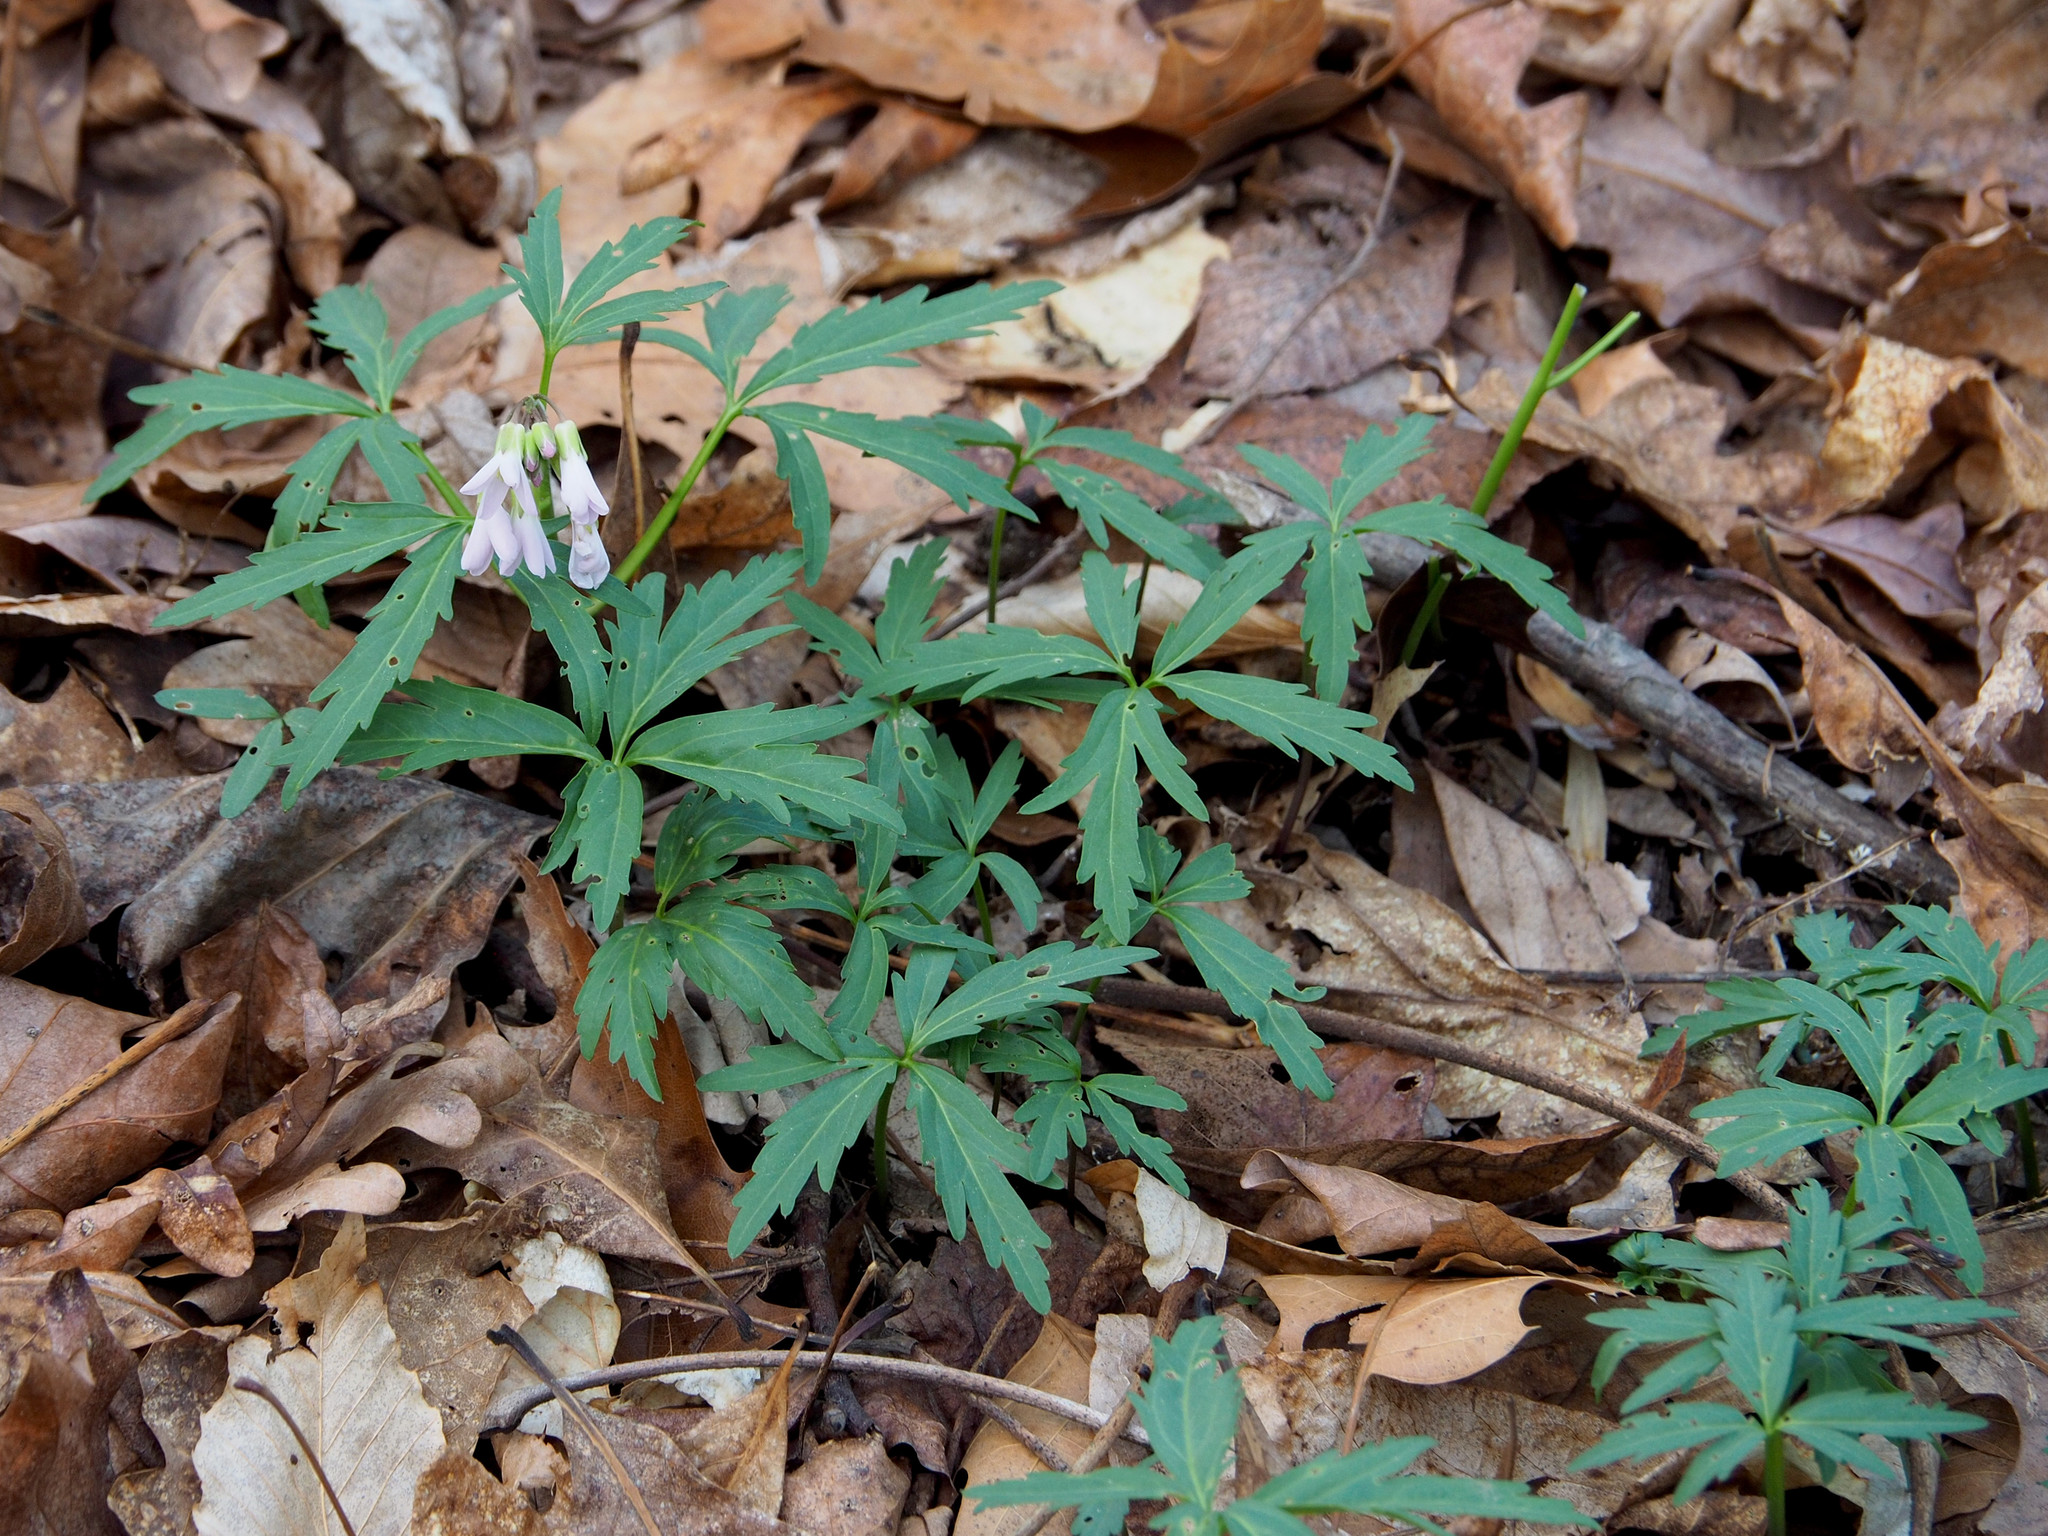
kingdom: Plantae
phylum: Tracheophyta
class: Magnoliopsida
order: Brassicales
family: Brassicaceae
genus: Cardamine
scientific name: Cardamine concatenata
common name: Cut-leaf toothcup
